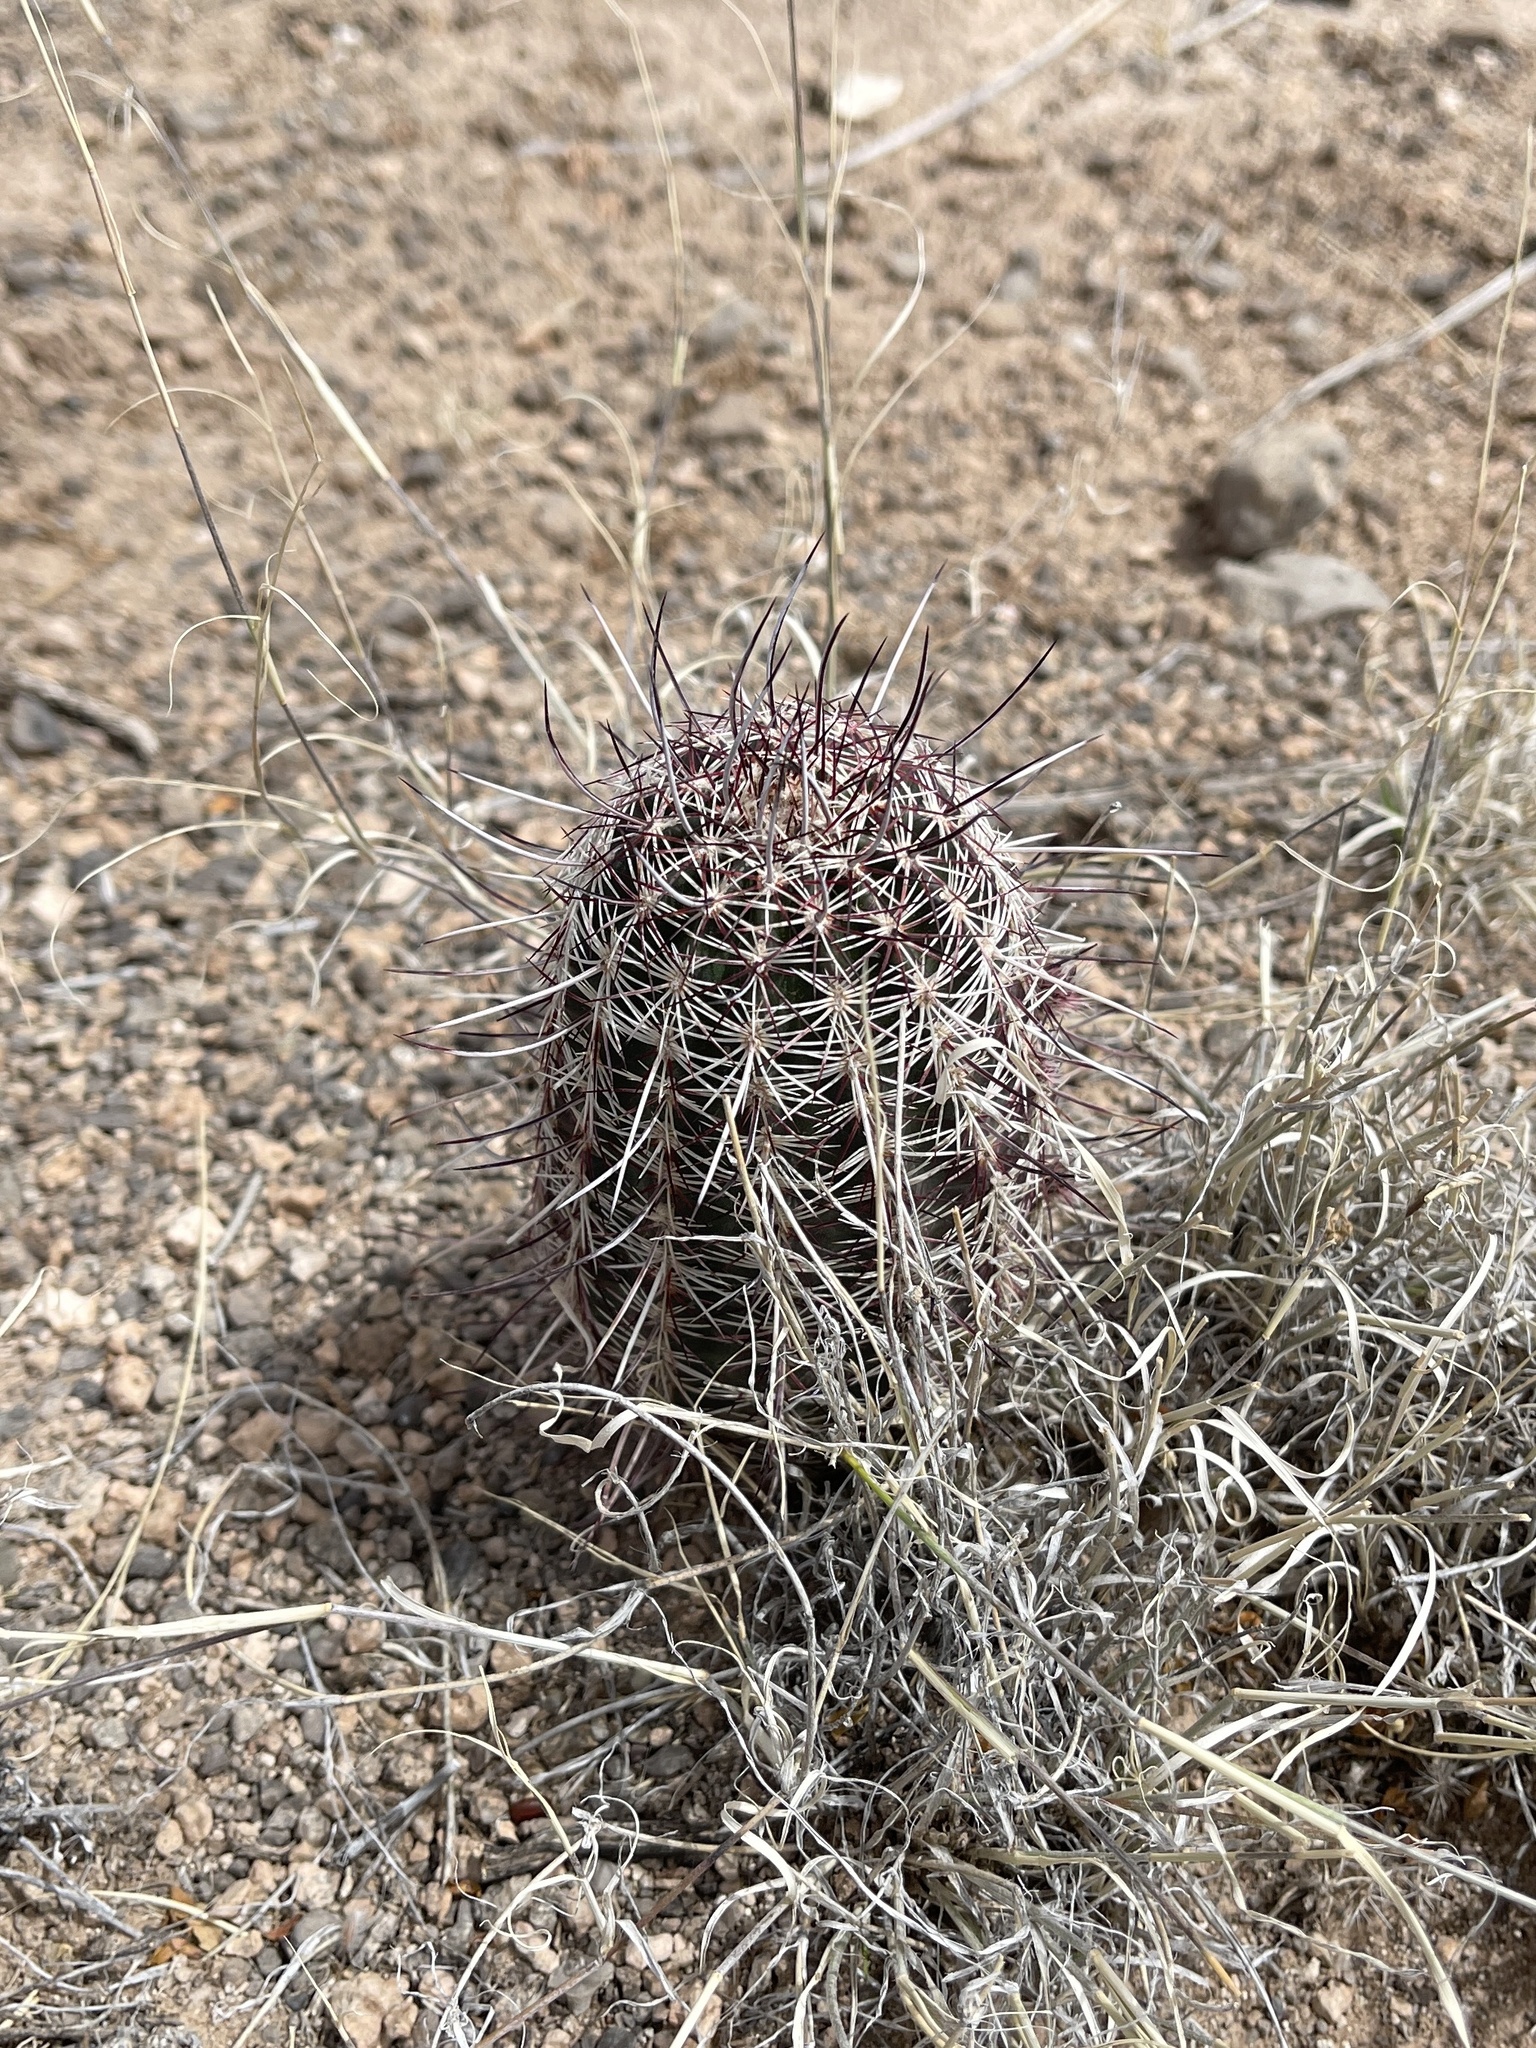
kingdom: Plantae
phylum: Tracheophyta
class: Magnoliopsida
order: Caryophyllales
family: Cactaceae
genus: Echinocereus
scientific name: Echinocereus viridiflorus
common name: Nylon hedgehog cactus
